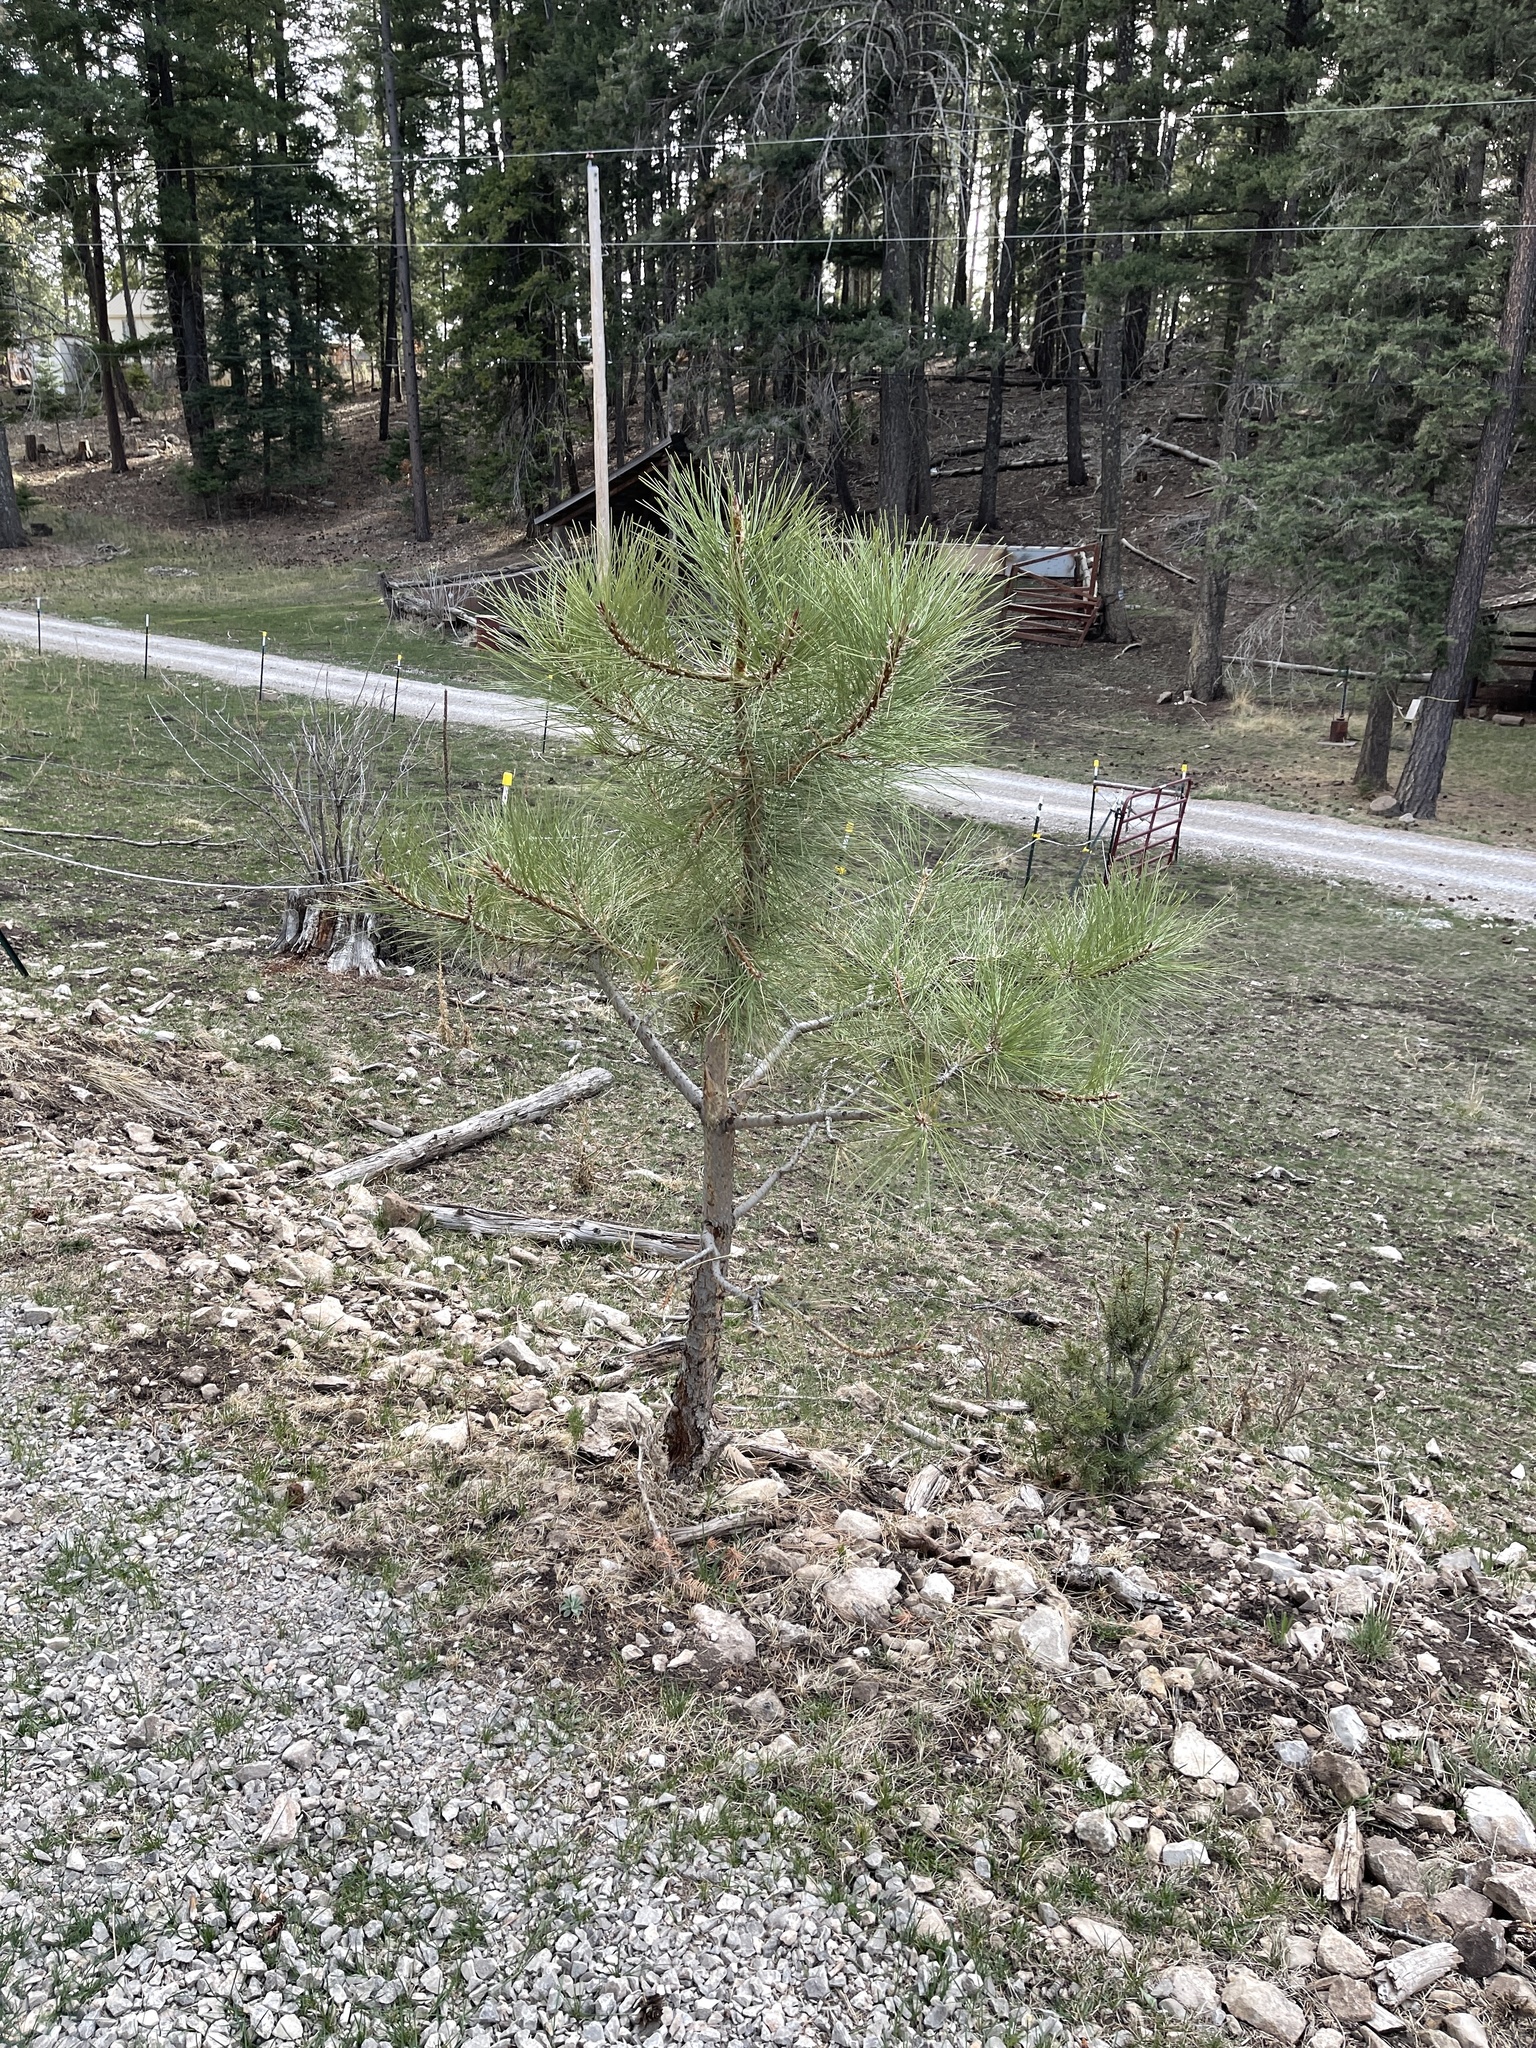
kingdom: Plantae
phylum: Tracheophyta
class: Pinopsida
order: Pinales
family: Pinaceae
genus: Pinus
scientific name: Pinus ponderosa
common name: Western yellow-pine
